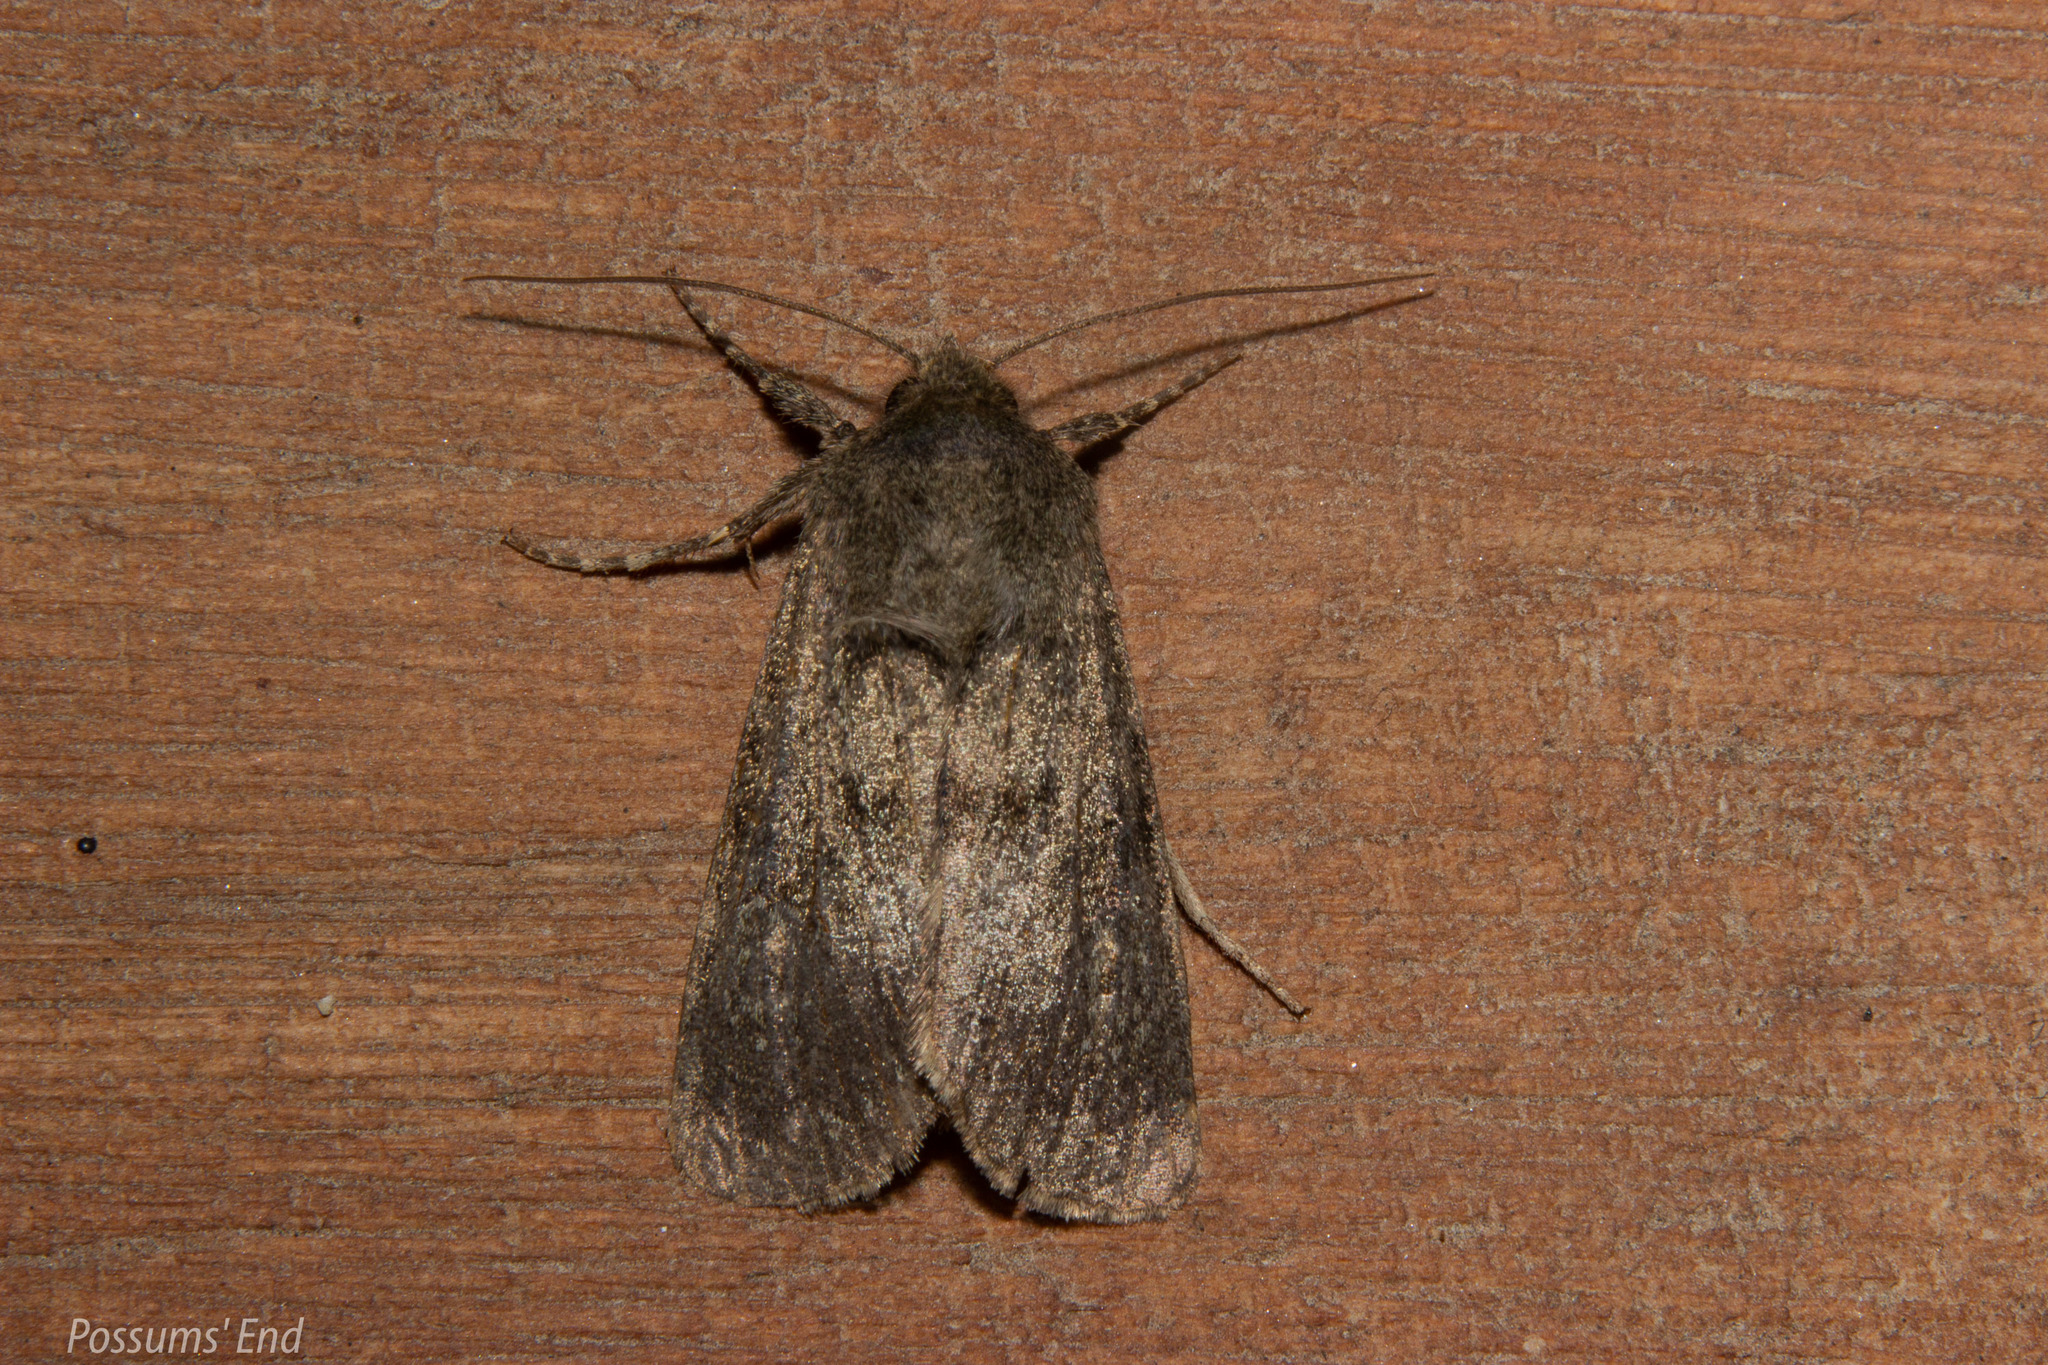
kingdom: Animalia
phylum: Arthropoda
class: Insecta
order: Lepidoptera
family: Noctuidae
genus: Ichneutica
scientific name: Ichneutica moderata
